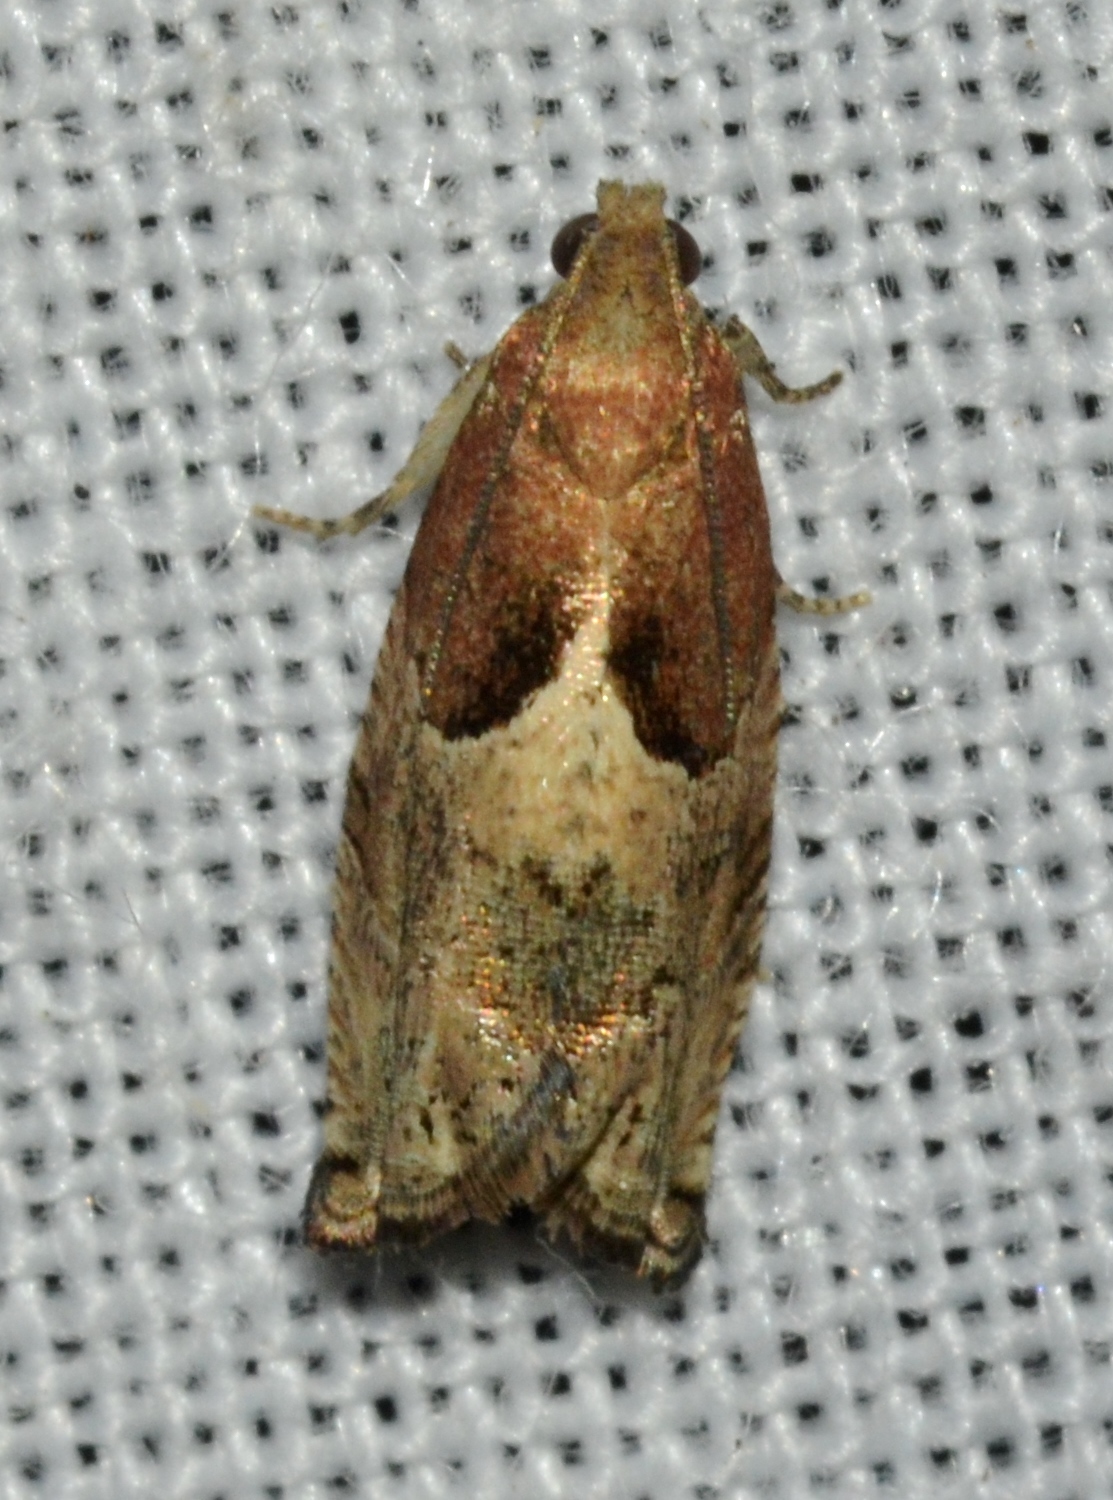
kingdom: Animalia
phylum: Arthropoda
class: Insecta
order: Lepidoptera
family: Tortricidae
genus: Gypsonoma
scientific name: Gypsonoma salicicolana
